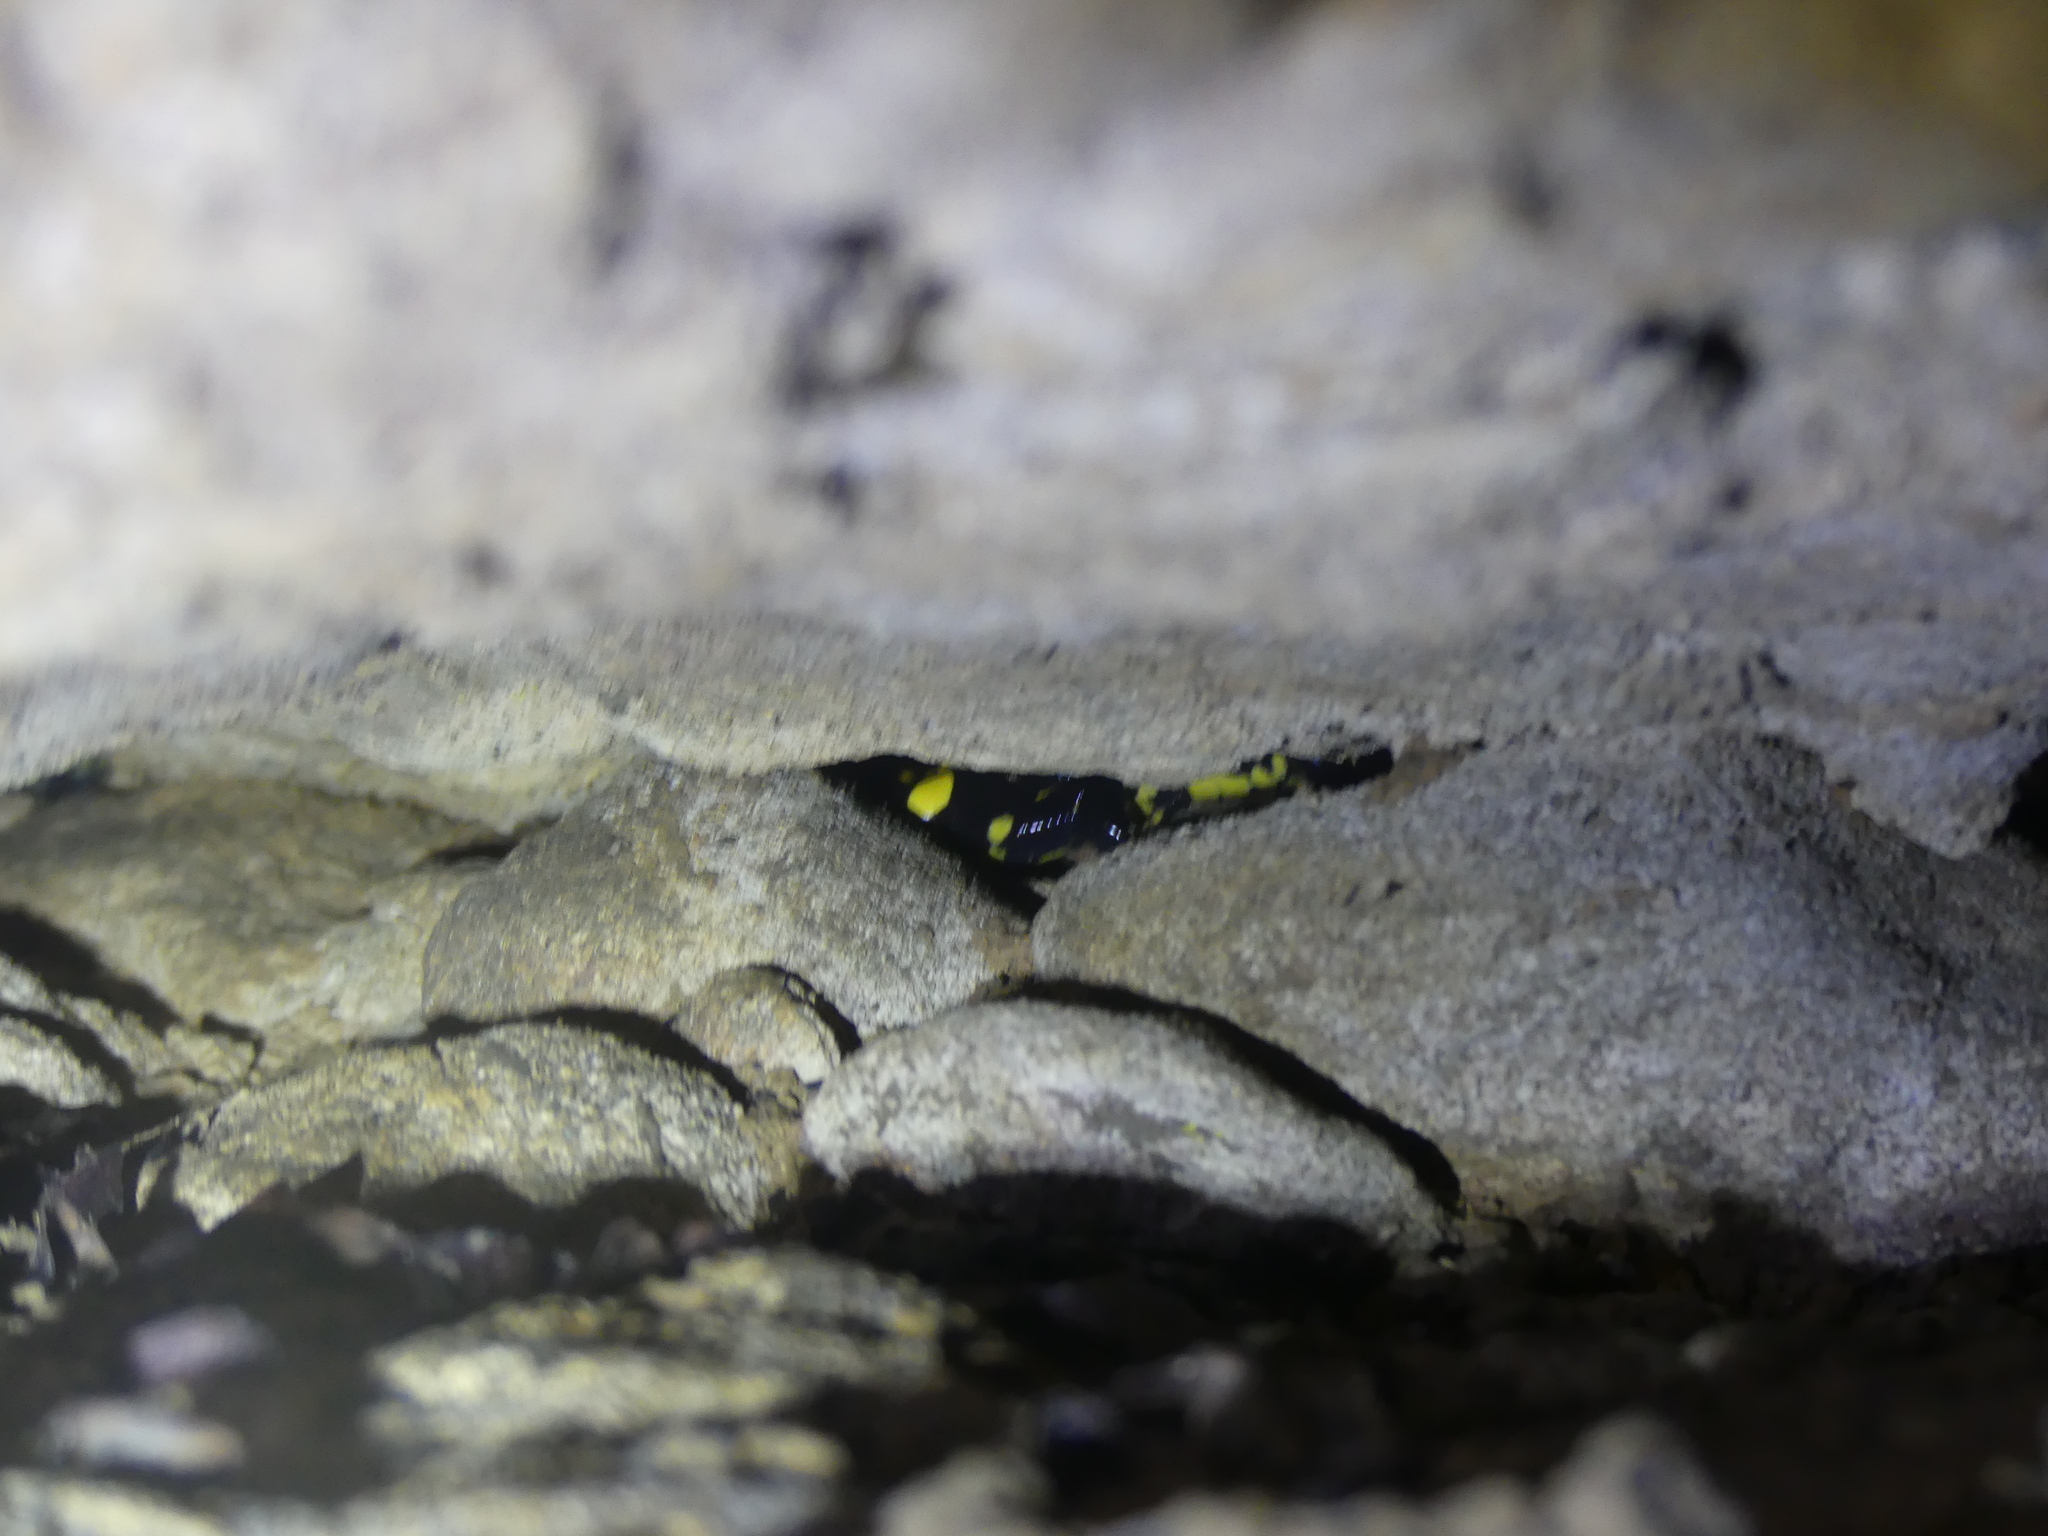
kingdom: Animalia
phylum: Chordata
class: Amphibia
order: Caudata
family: Salamandridae
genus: Salamandra
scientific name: Salamandra salamandra
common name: Fire salamander
